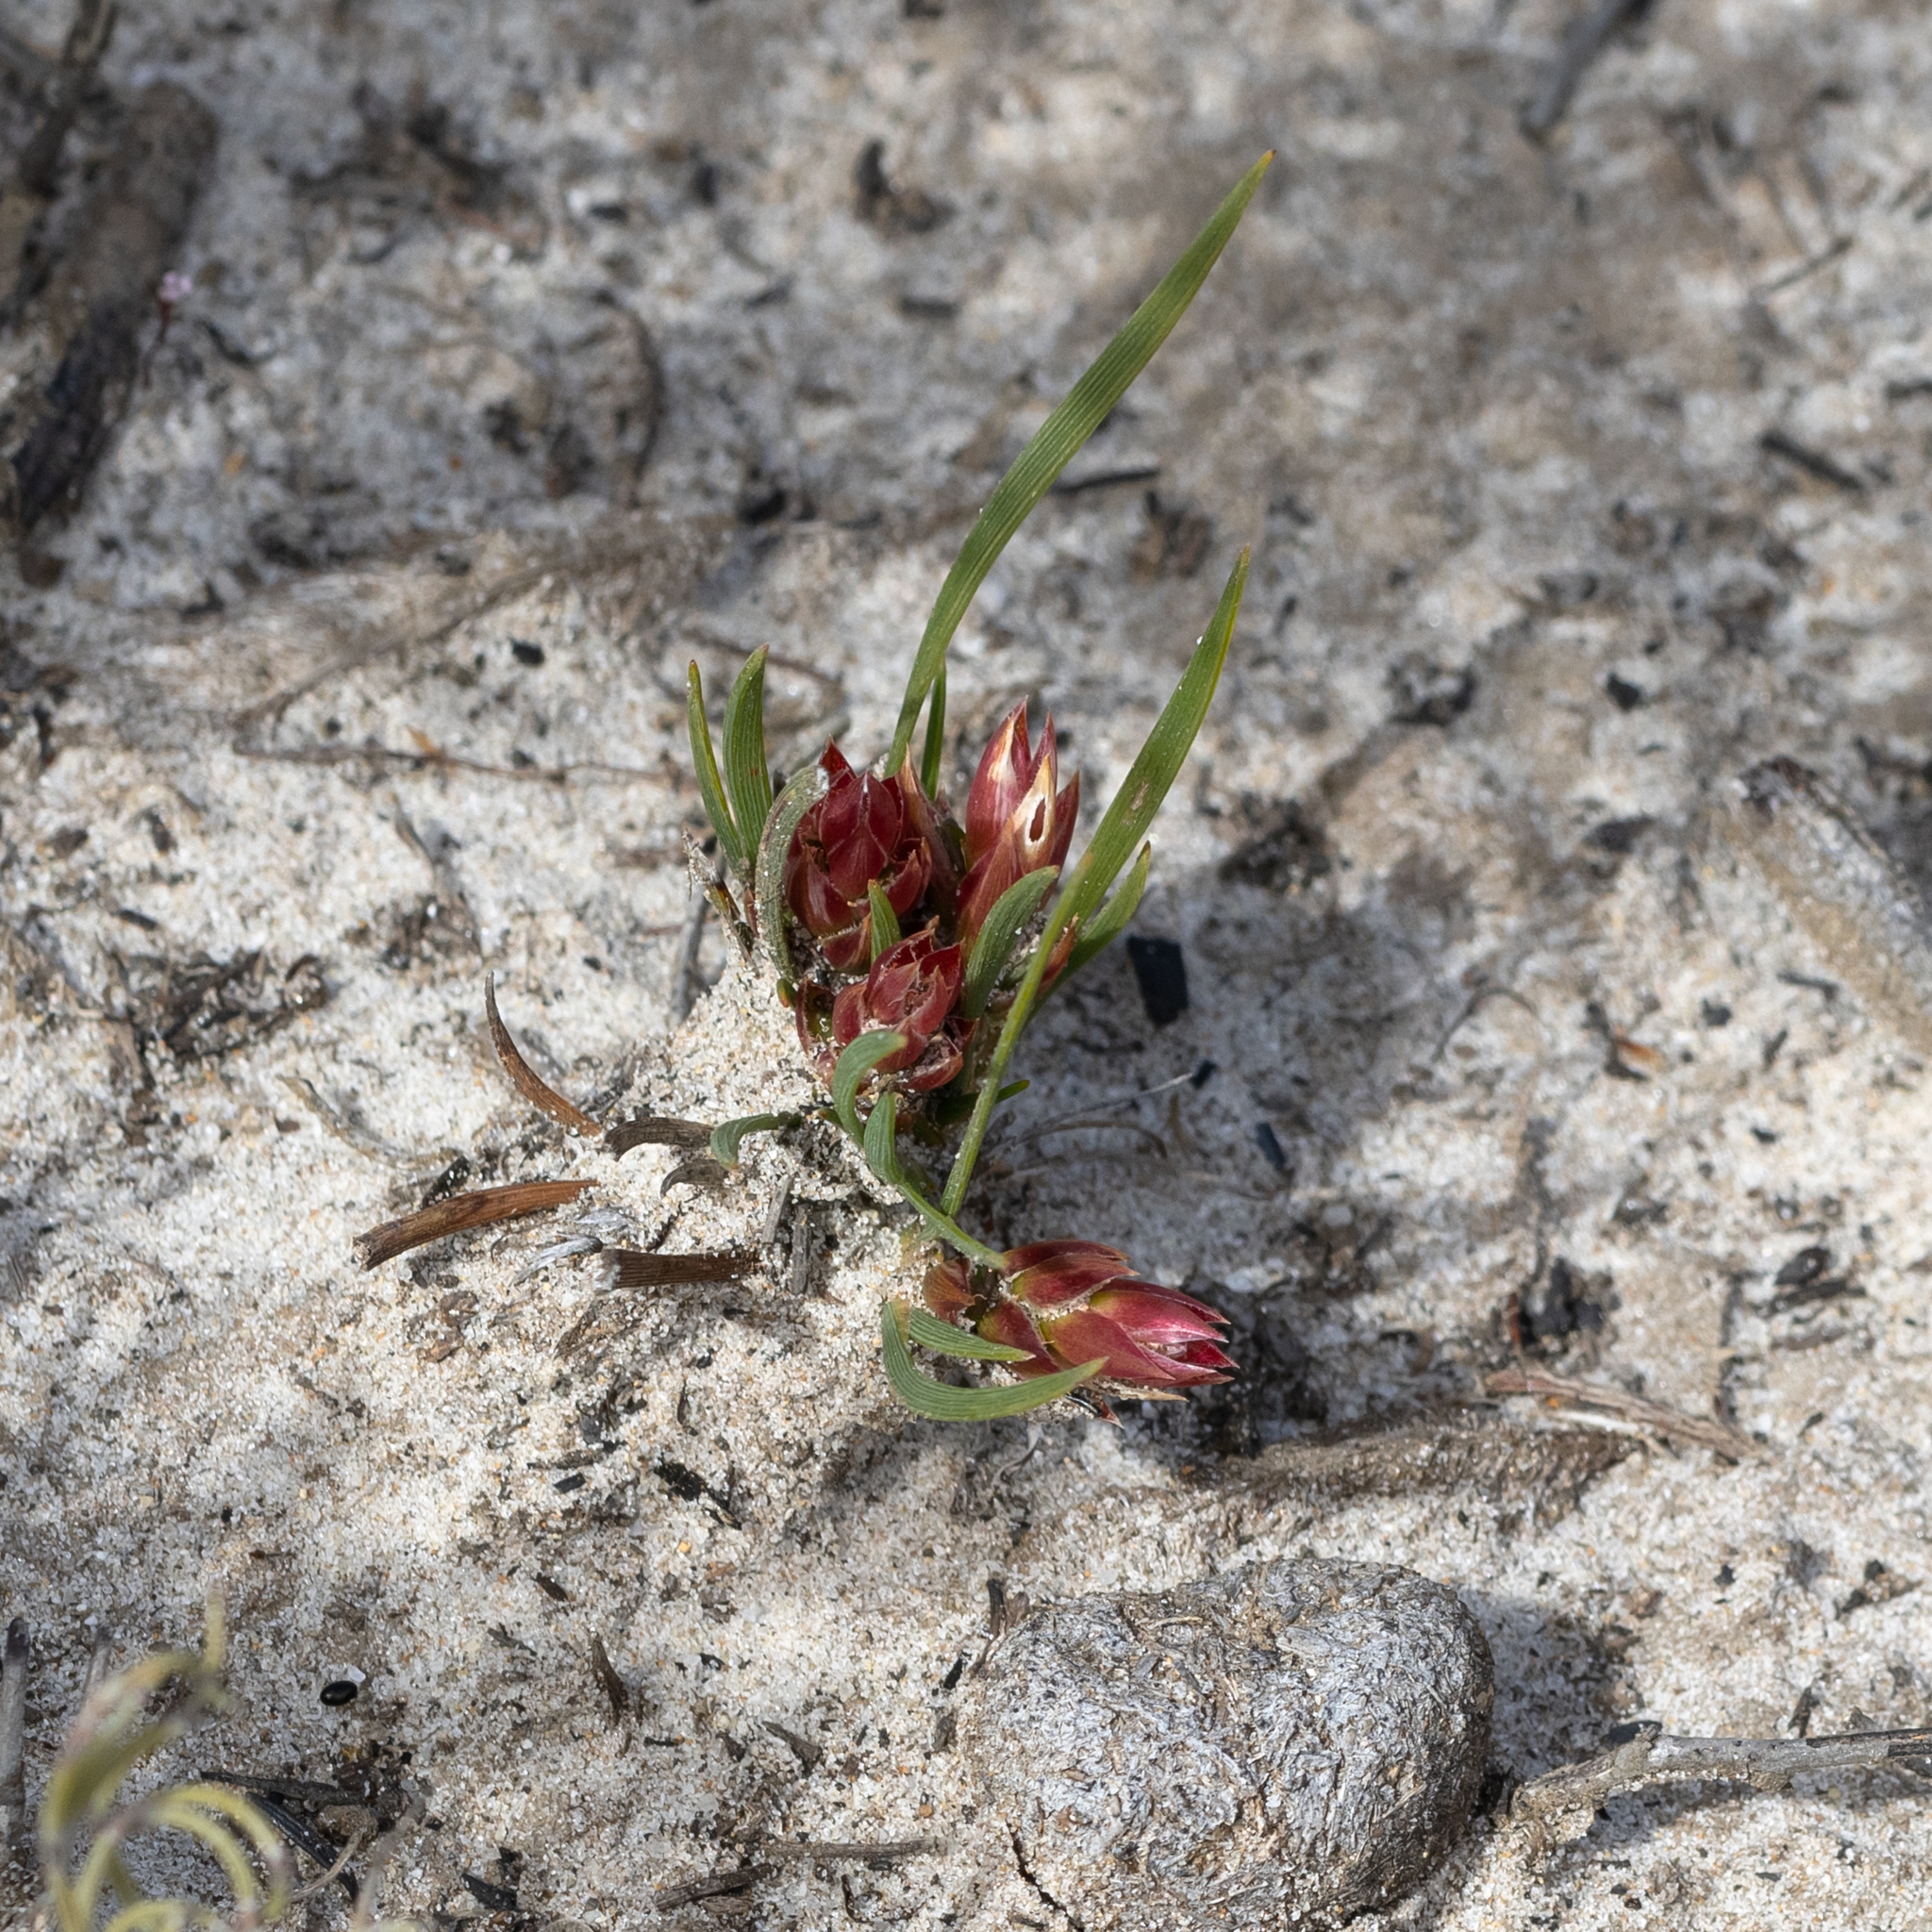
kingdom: Plantae
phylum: Tracheophyta
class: Liliopsida
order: Asparagales
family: Asphodelaceae
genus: Johnsonia
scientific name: Johnsonia acaulis
